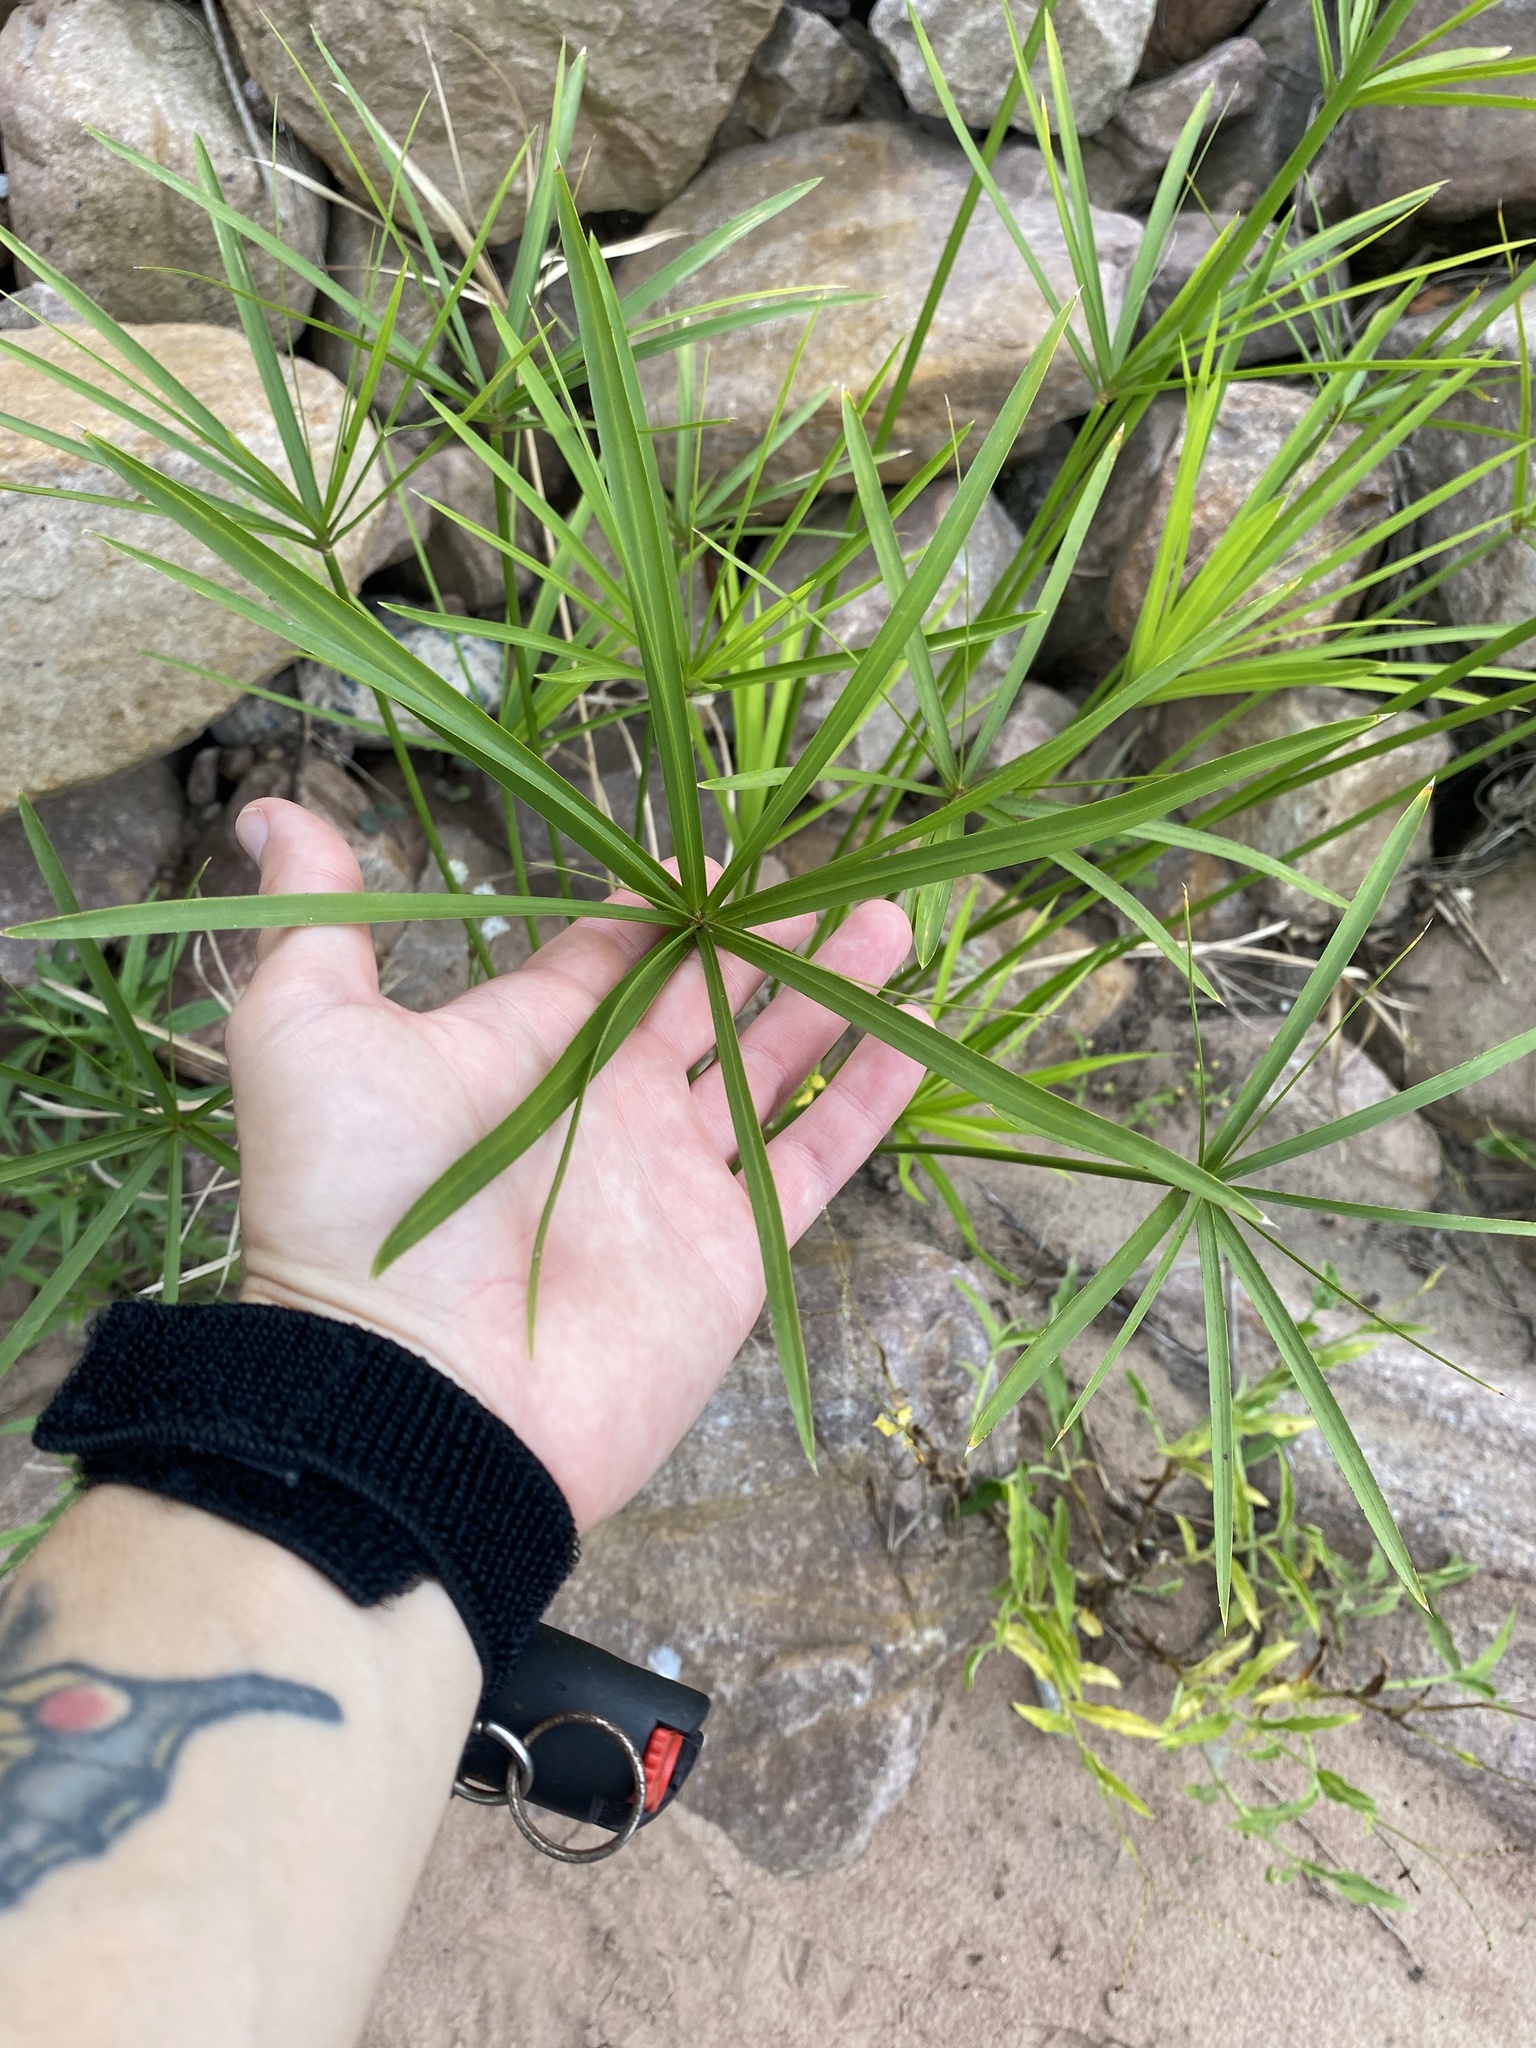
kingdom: Plantae
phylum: Tracheophyta
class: Liliopsida
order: Poales
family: Cyperaceae
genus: Cyperus
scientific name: Cyperus alternifolius
